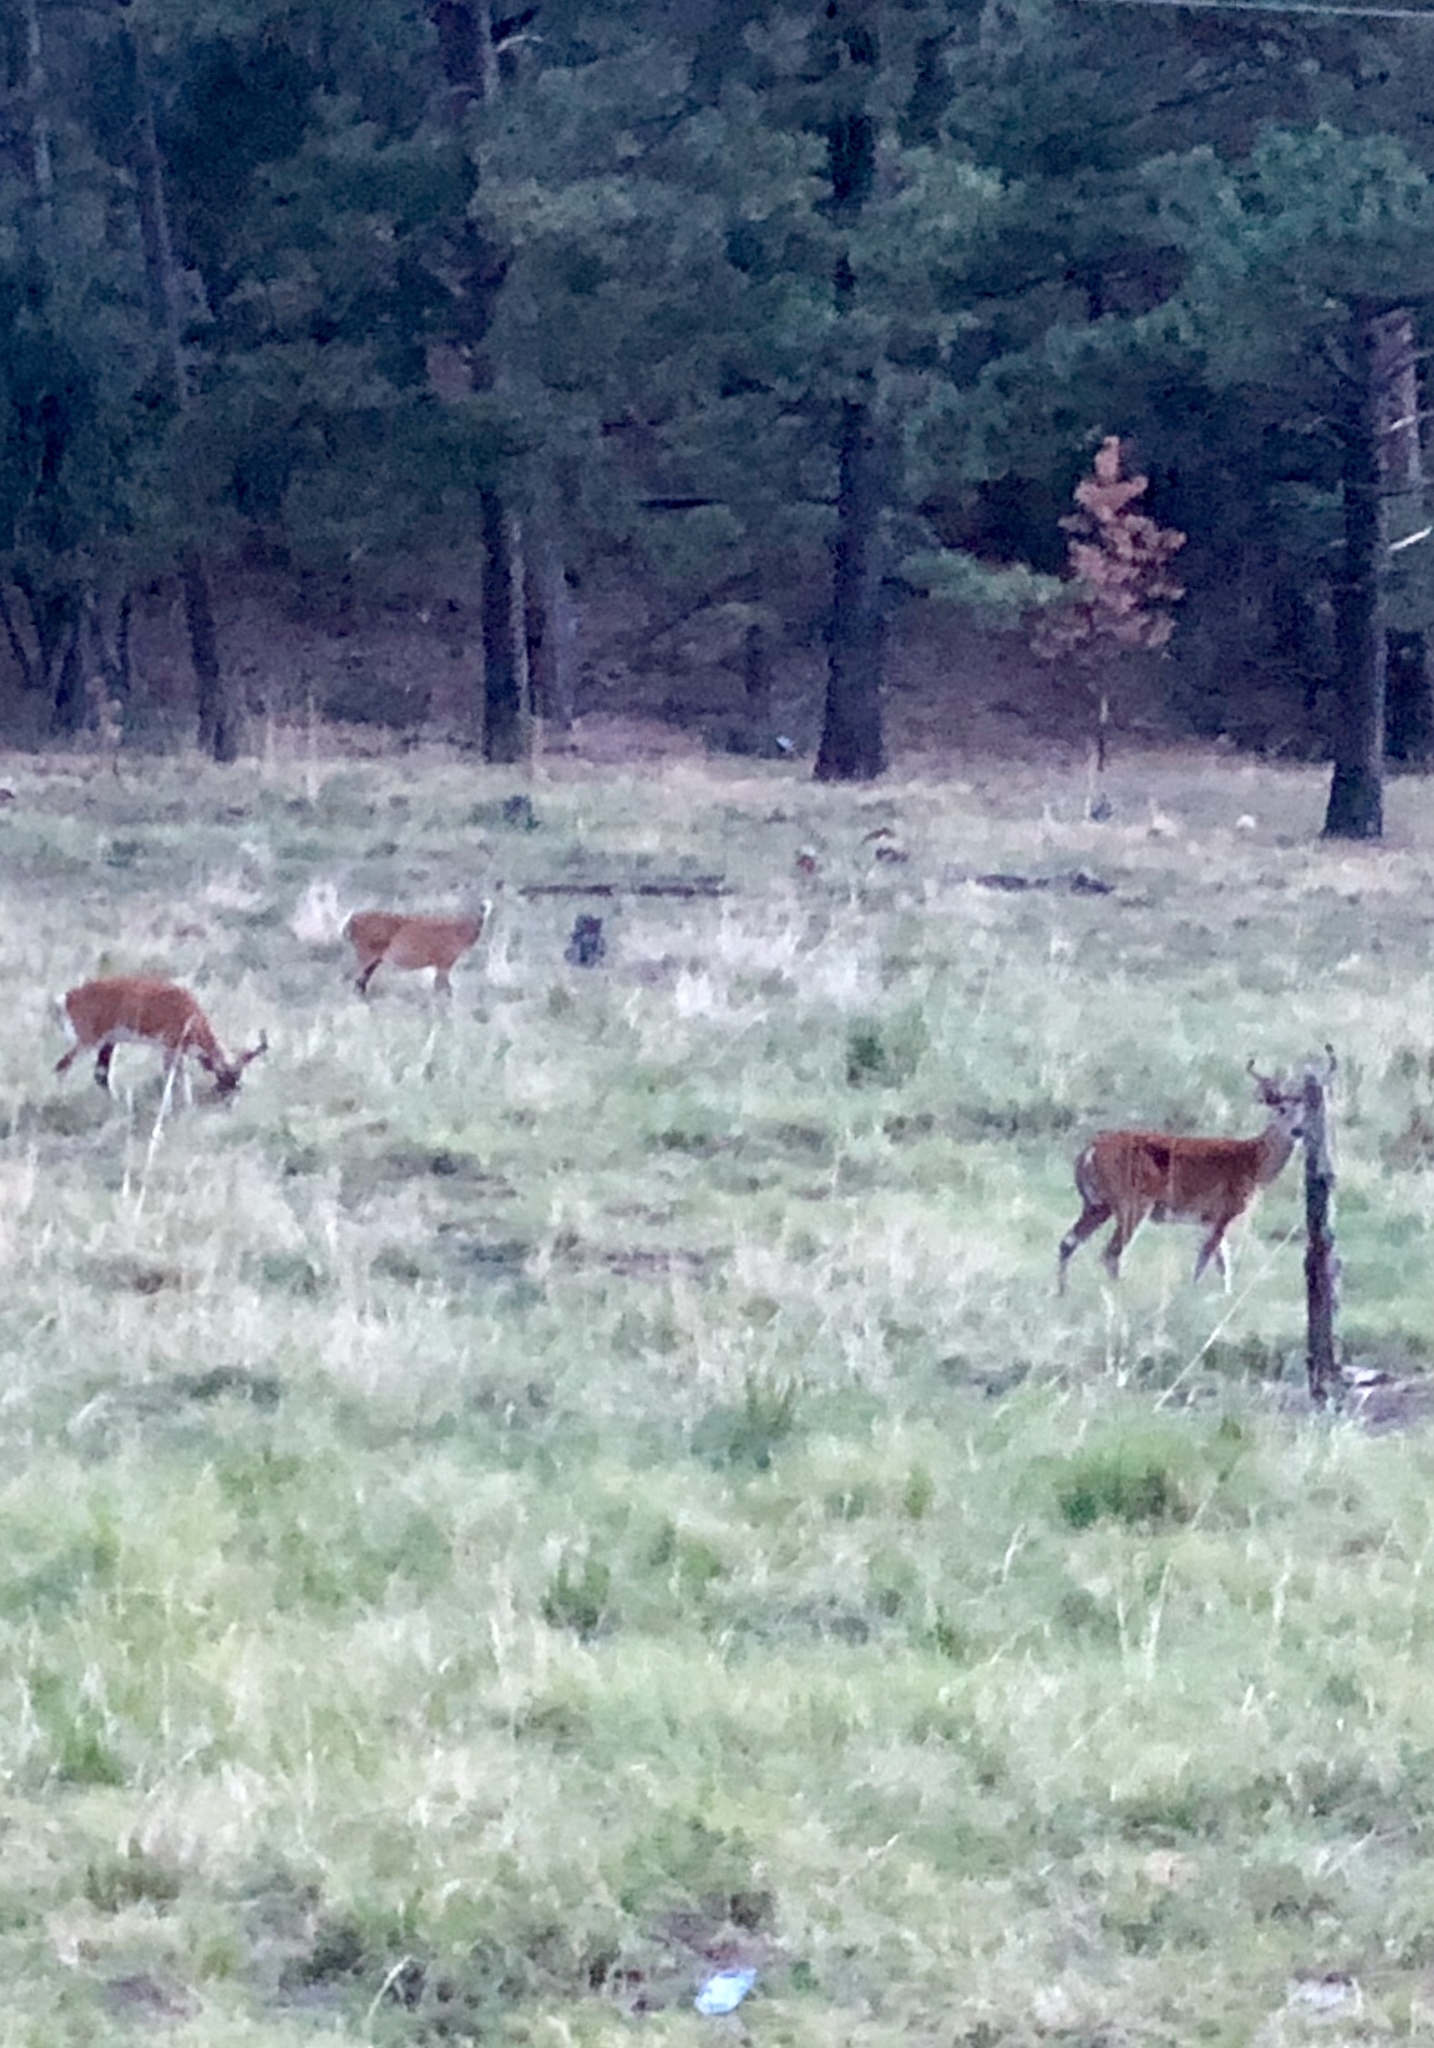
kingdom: Animalia
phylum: Chordata
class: Mammalia
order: Artiodactyla
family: Cervidae
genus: Odocoileus
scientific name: Odocoileus virginianus
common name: White-tailed deer
